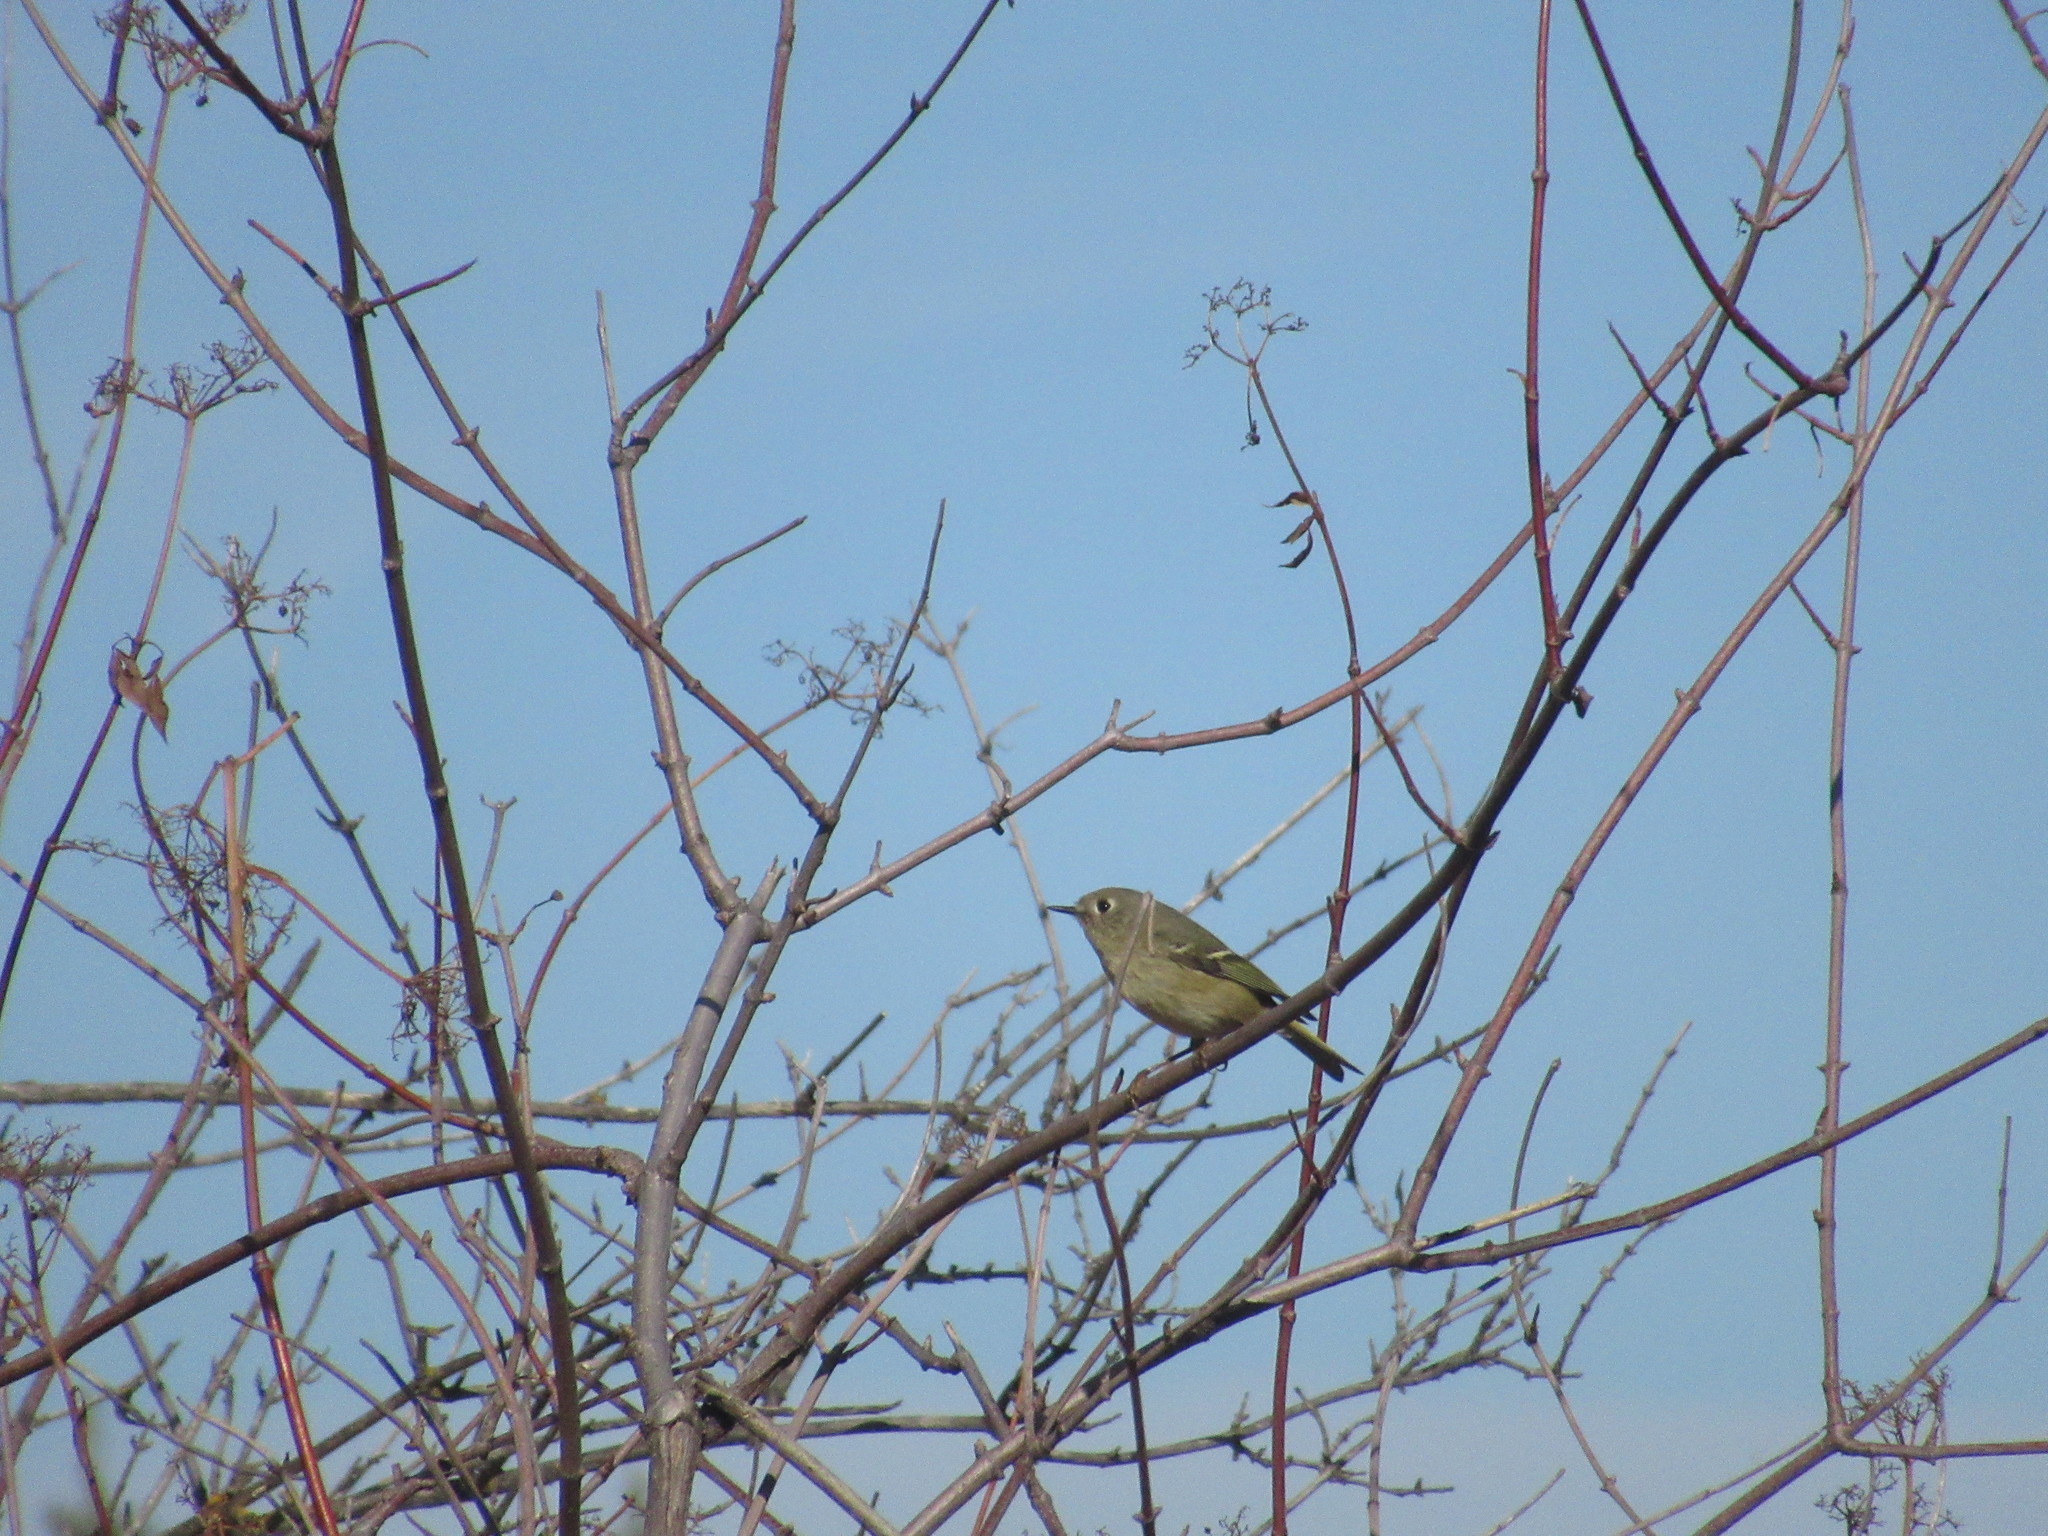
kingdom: Animalia
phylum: Chordata
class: Aves
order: Passeriformes
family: Regulidae
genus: Regulus
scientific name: Regulus calendula
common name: Ruby-crowned kinglet
